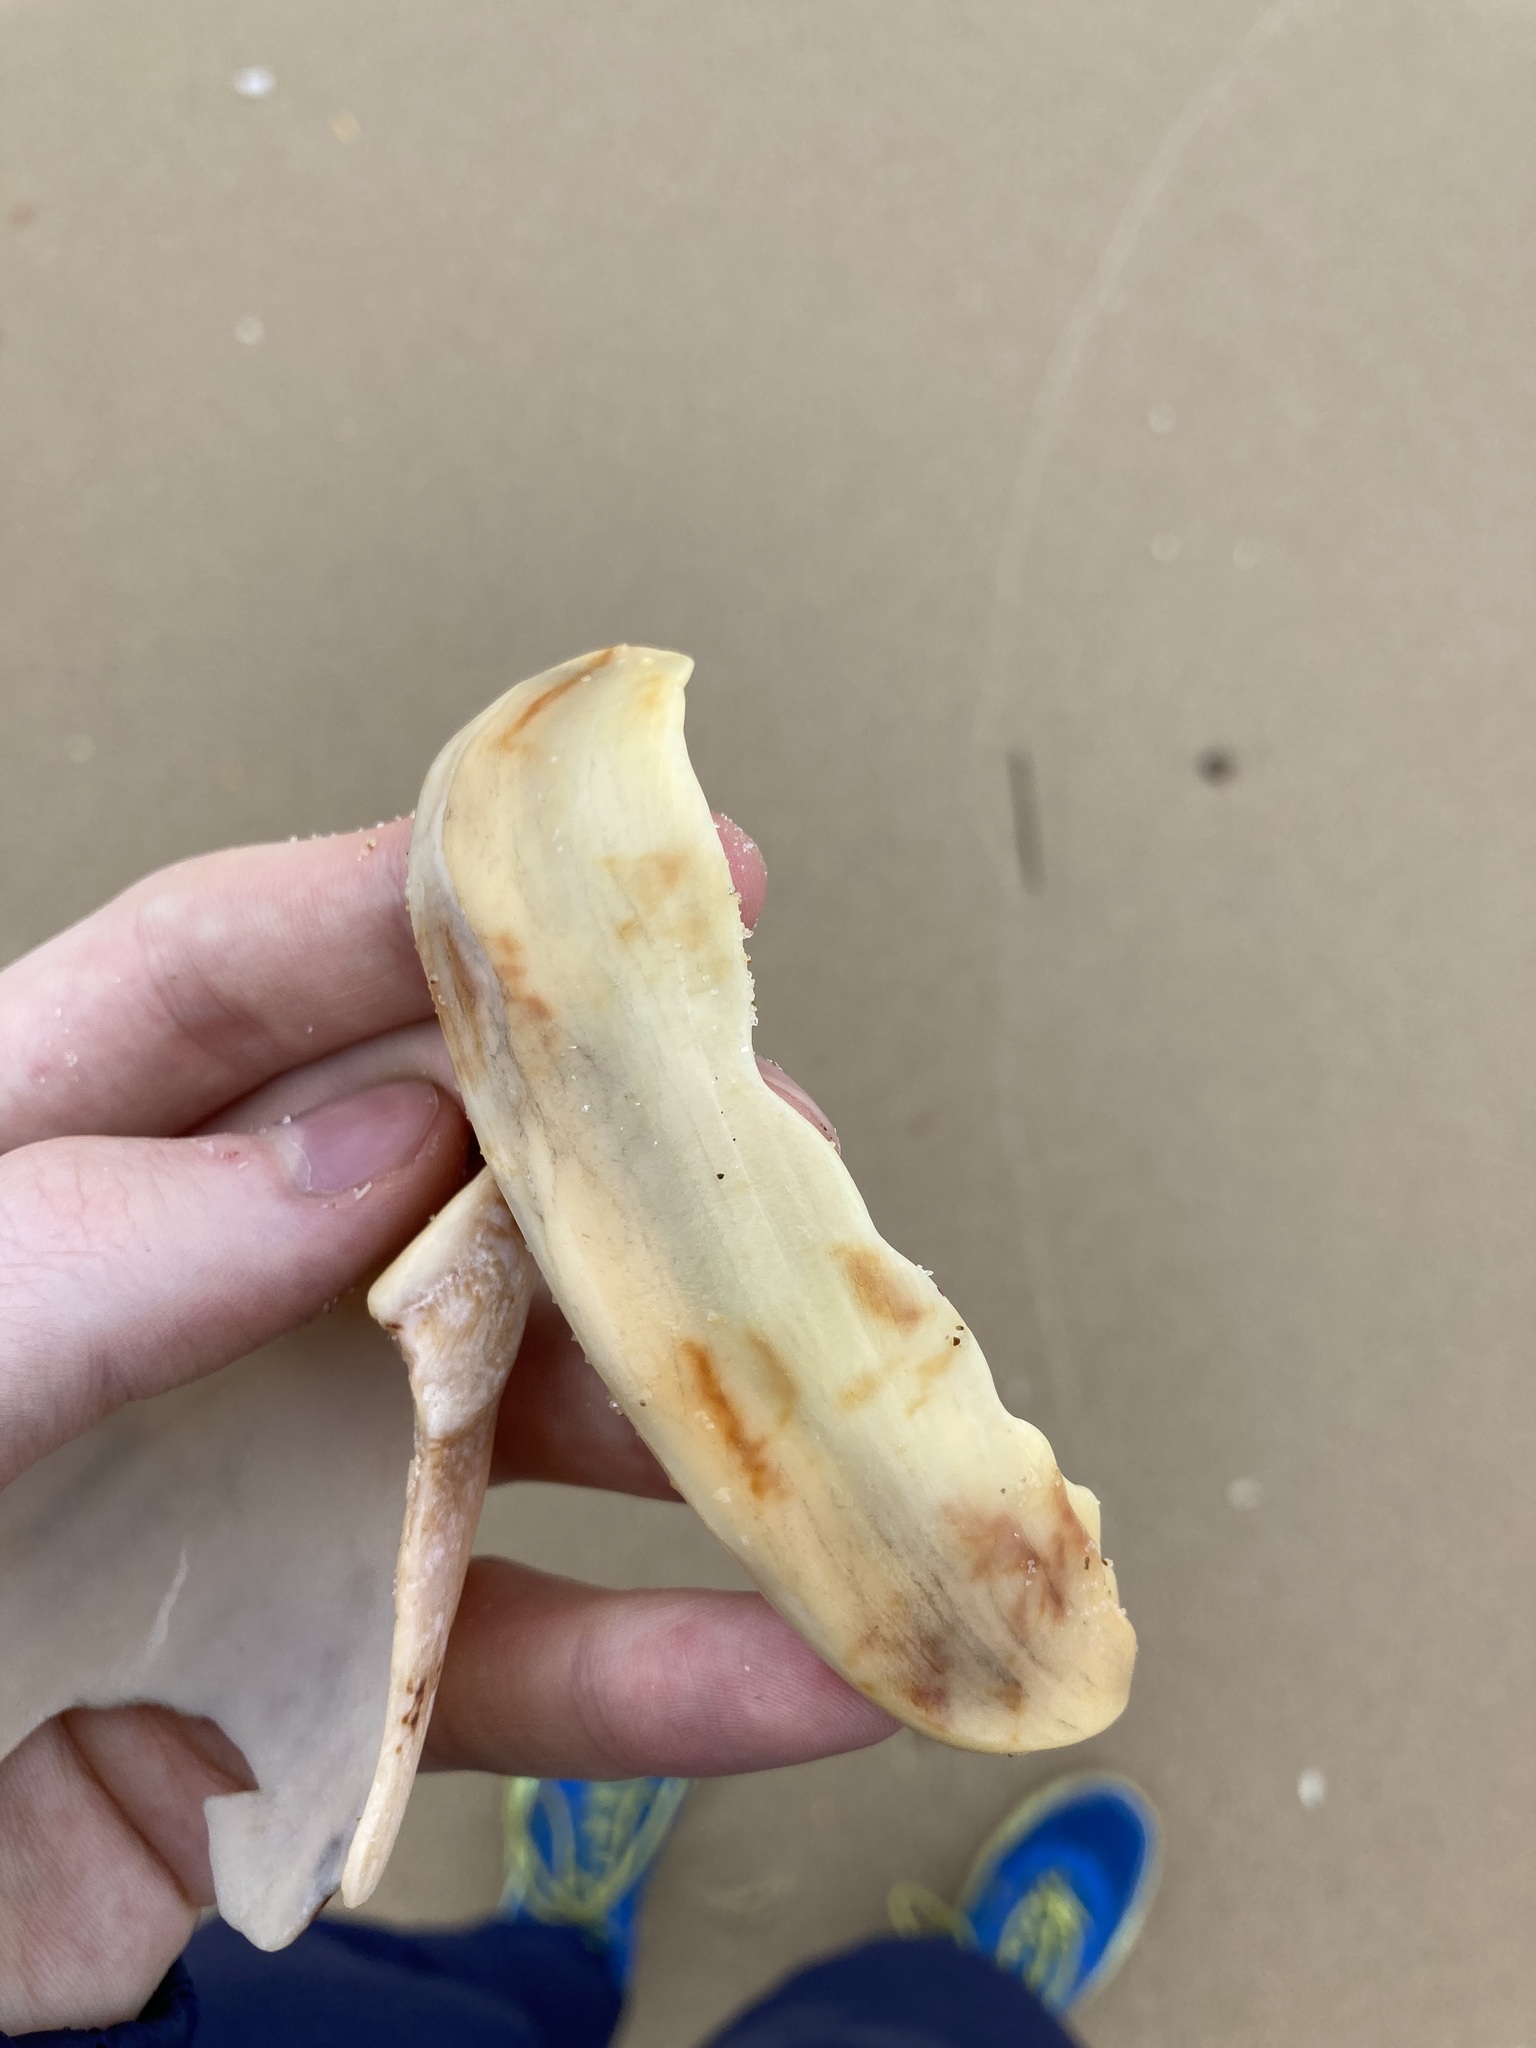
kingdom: Animalia
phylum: Mollusca
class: Gastropoda
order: Neogastropoda
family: Volutidae
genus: Amoria
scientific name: Amoria hunteri
